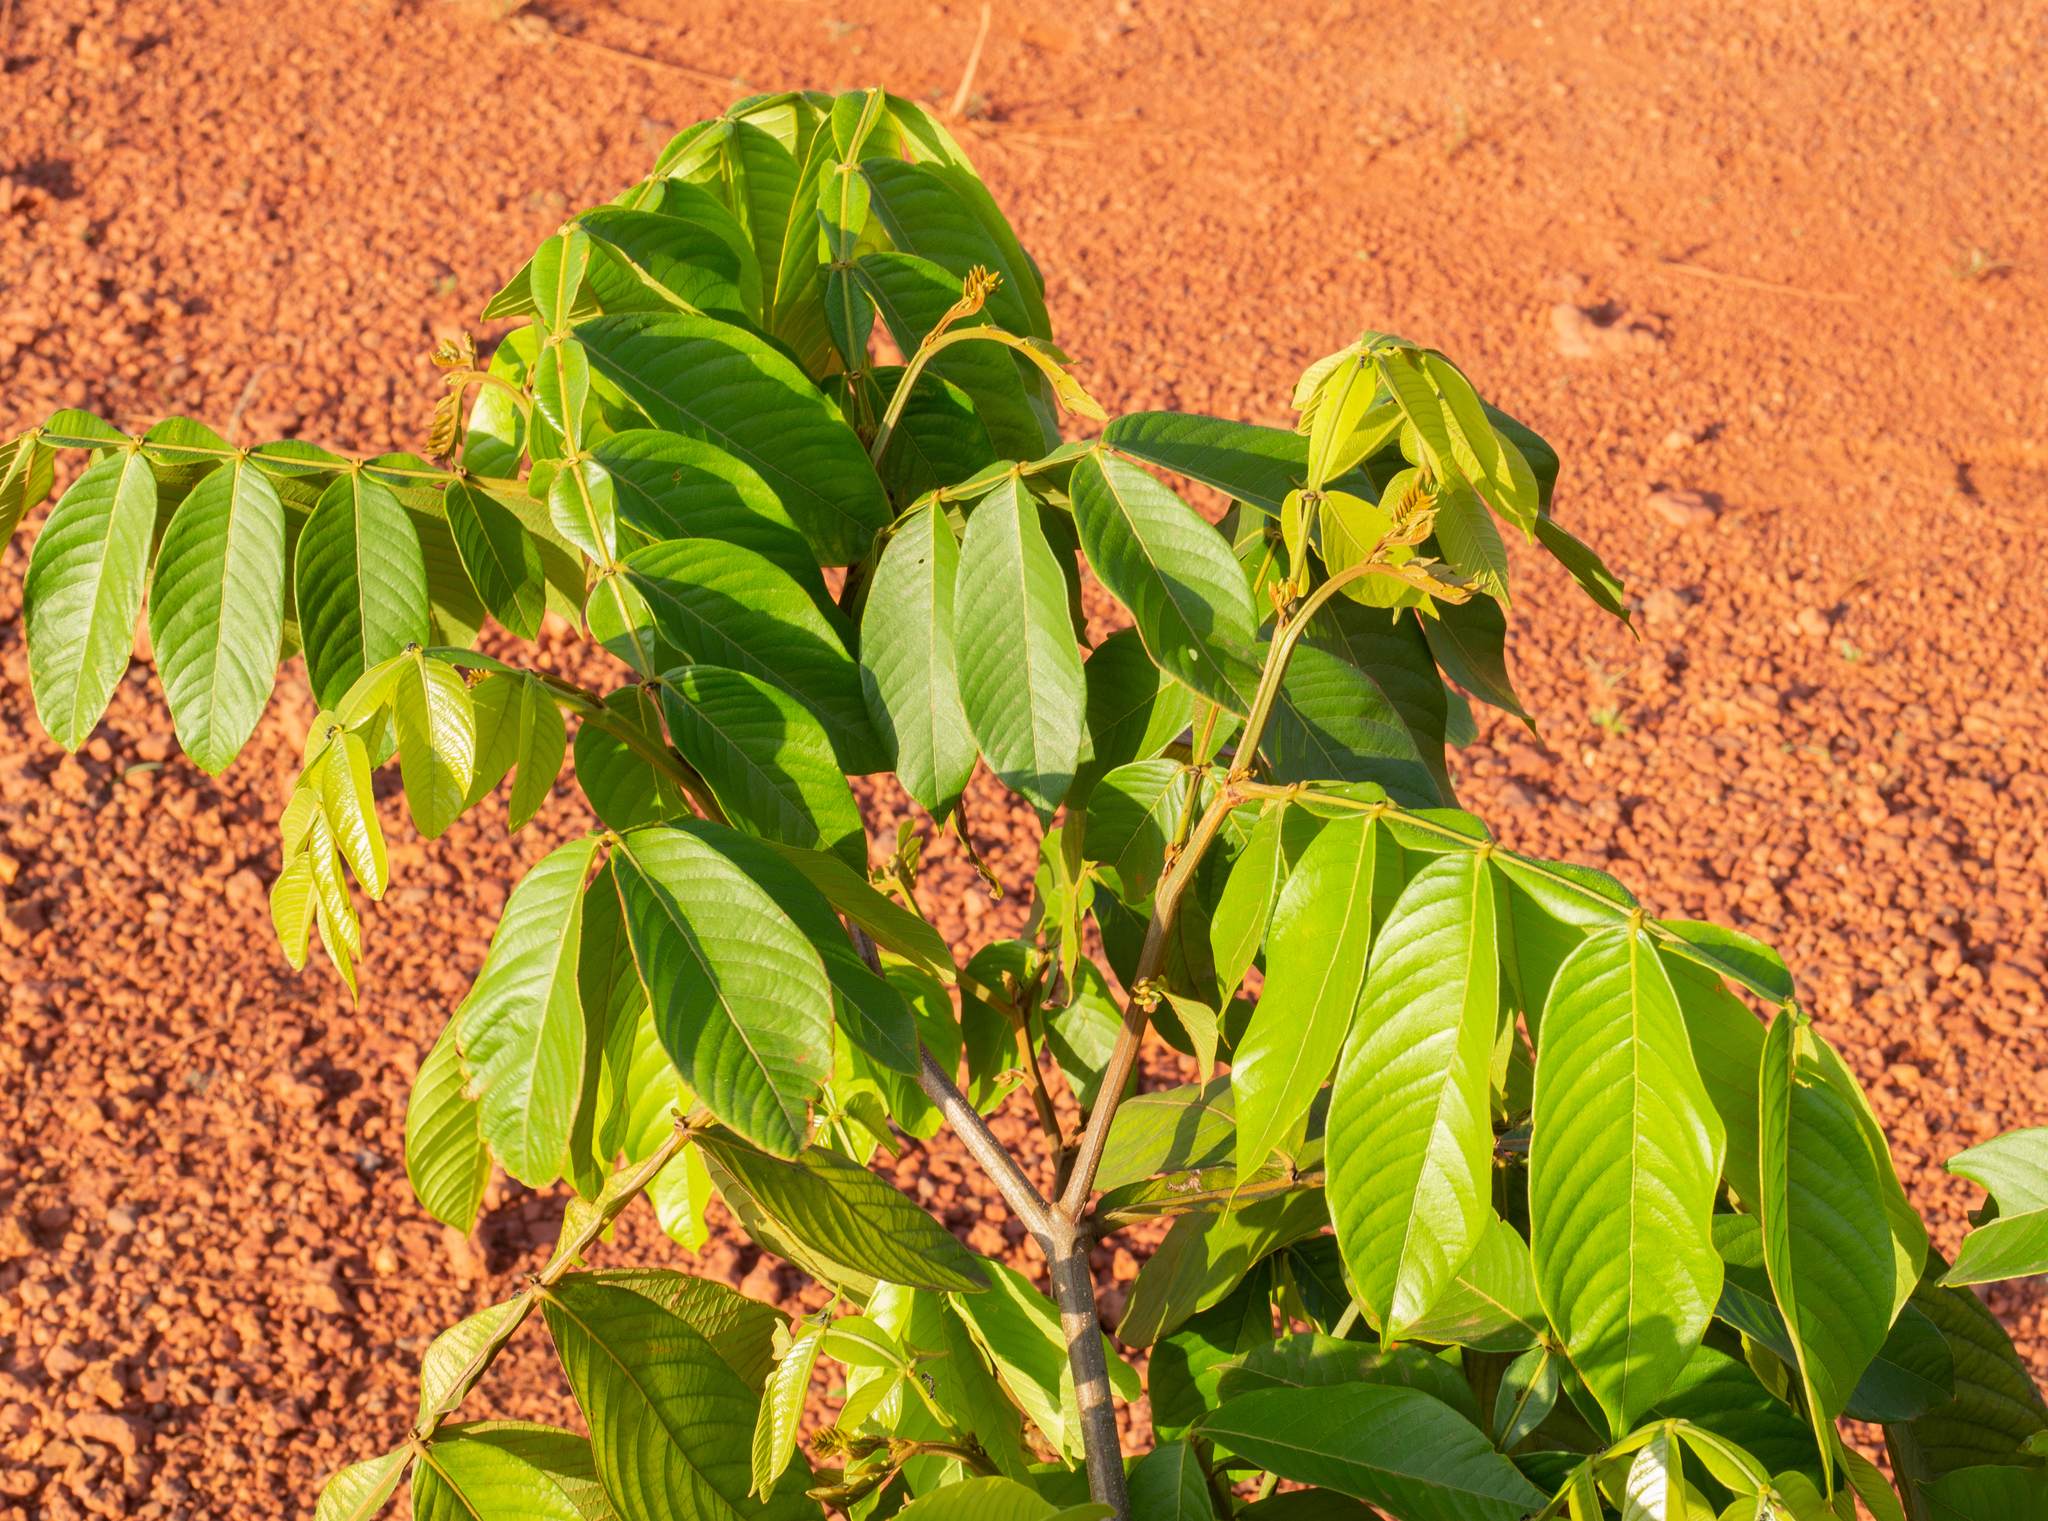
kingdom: Plantae
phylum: Tracheophyta
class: Magnoliopsida
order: Fabales
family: Fabaceae
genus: Inga
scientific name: Inga edulis
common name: Ice cream bean
